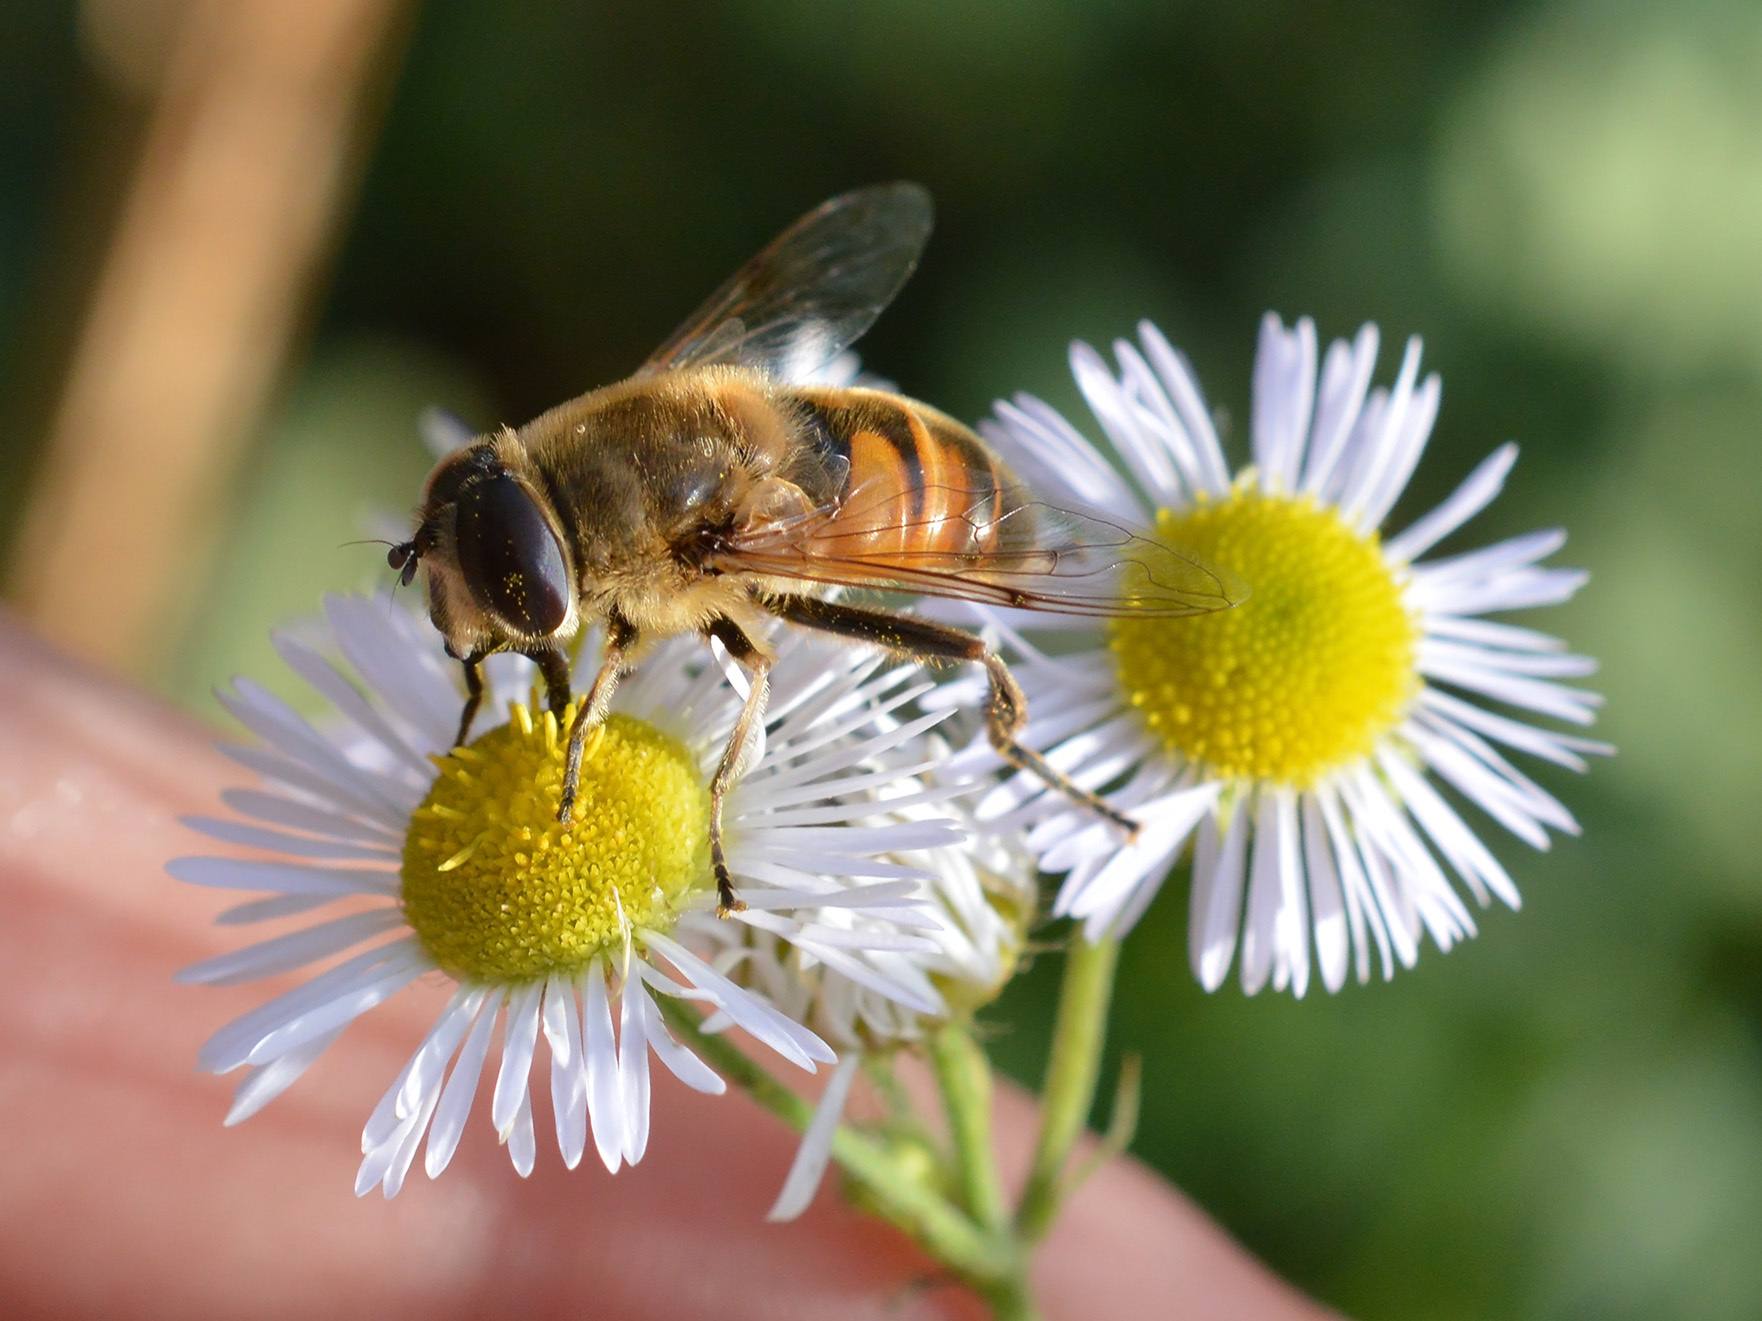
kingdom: Animalia
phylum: Arthropoda
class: Insecta
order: Diptera
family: Syrphidae
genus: Eristalis
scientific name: Eristalis tenax
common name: Drone fly
